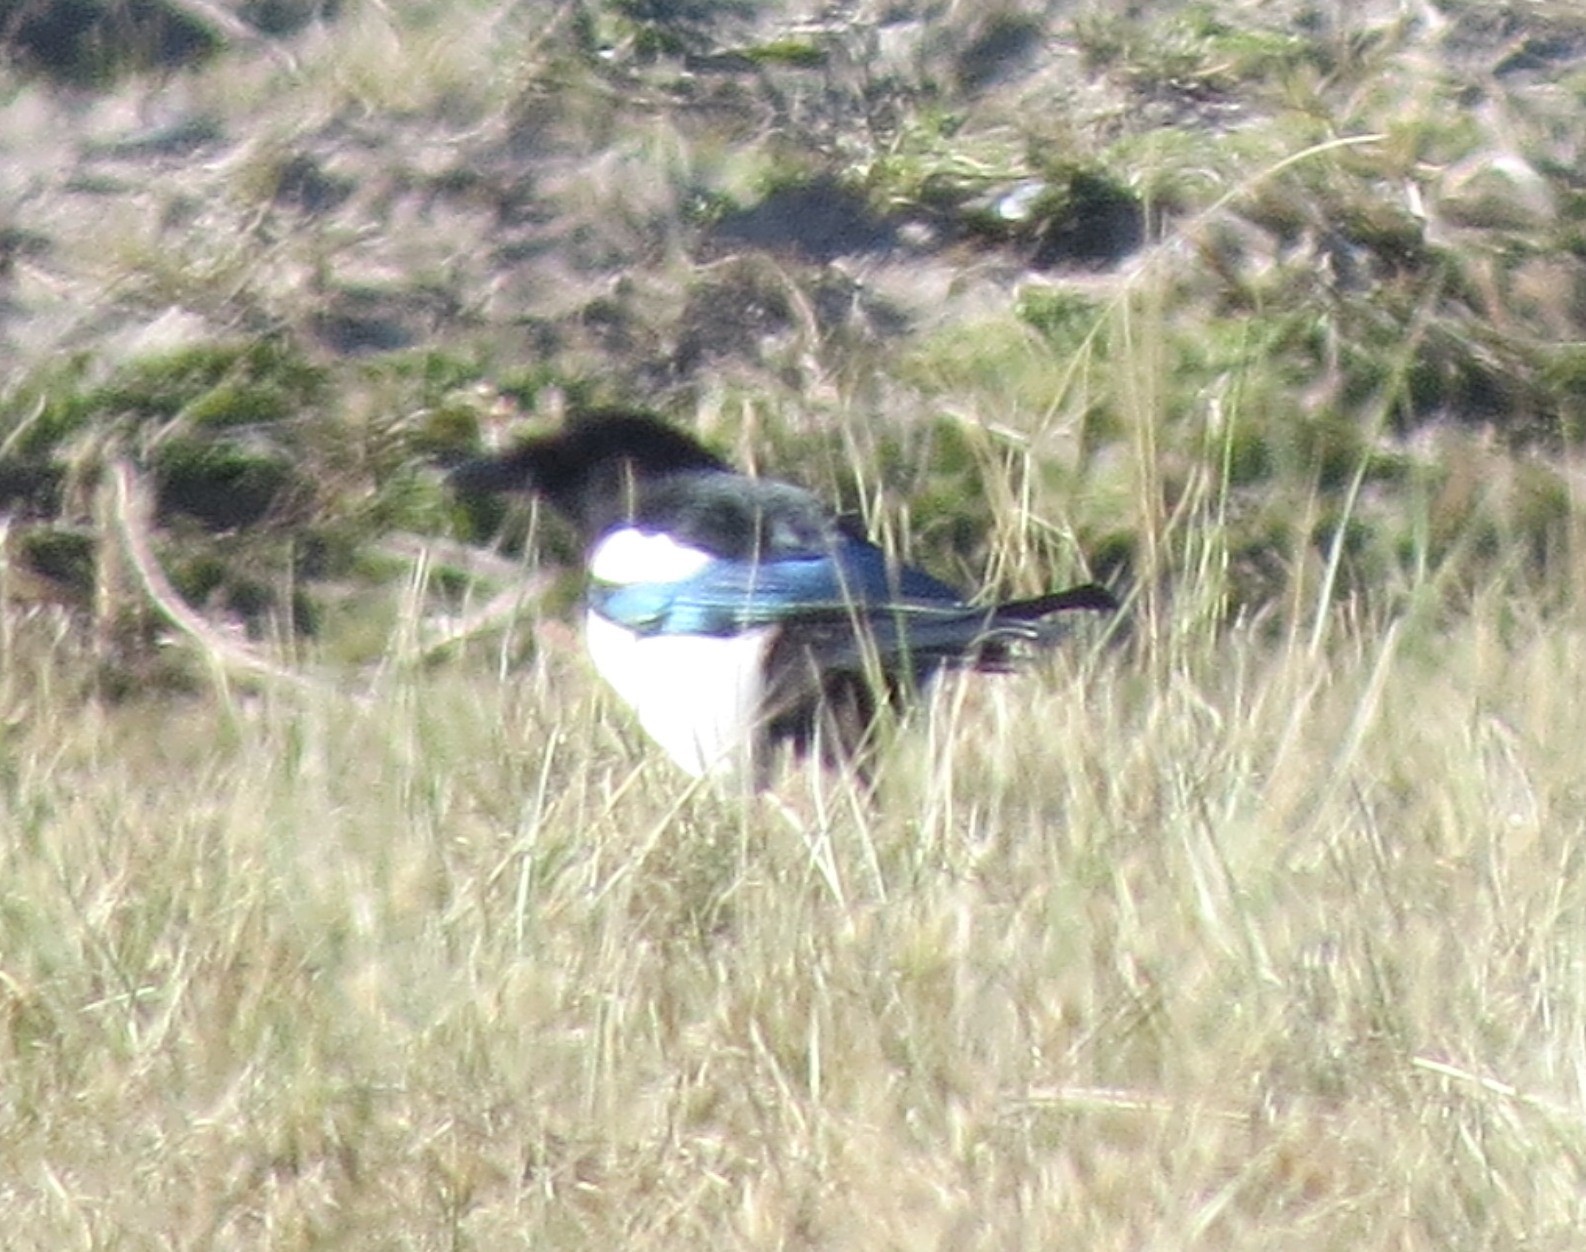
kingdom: Animalia
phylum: Chordata
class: Aves
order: Passeriformes
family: Corvidae
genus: Pica
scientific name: Pica pica
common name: Eurasian magpie
